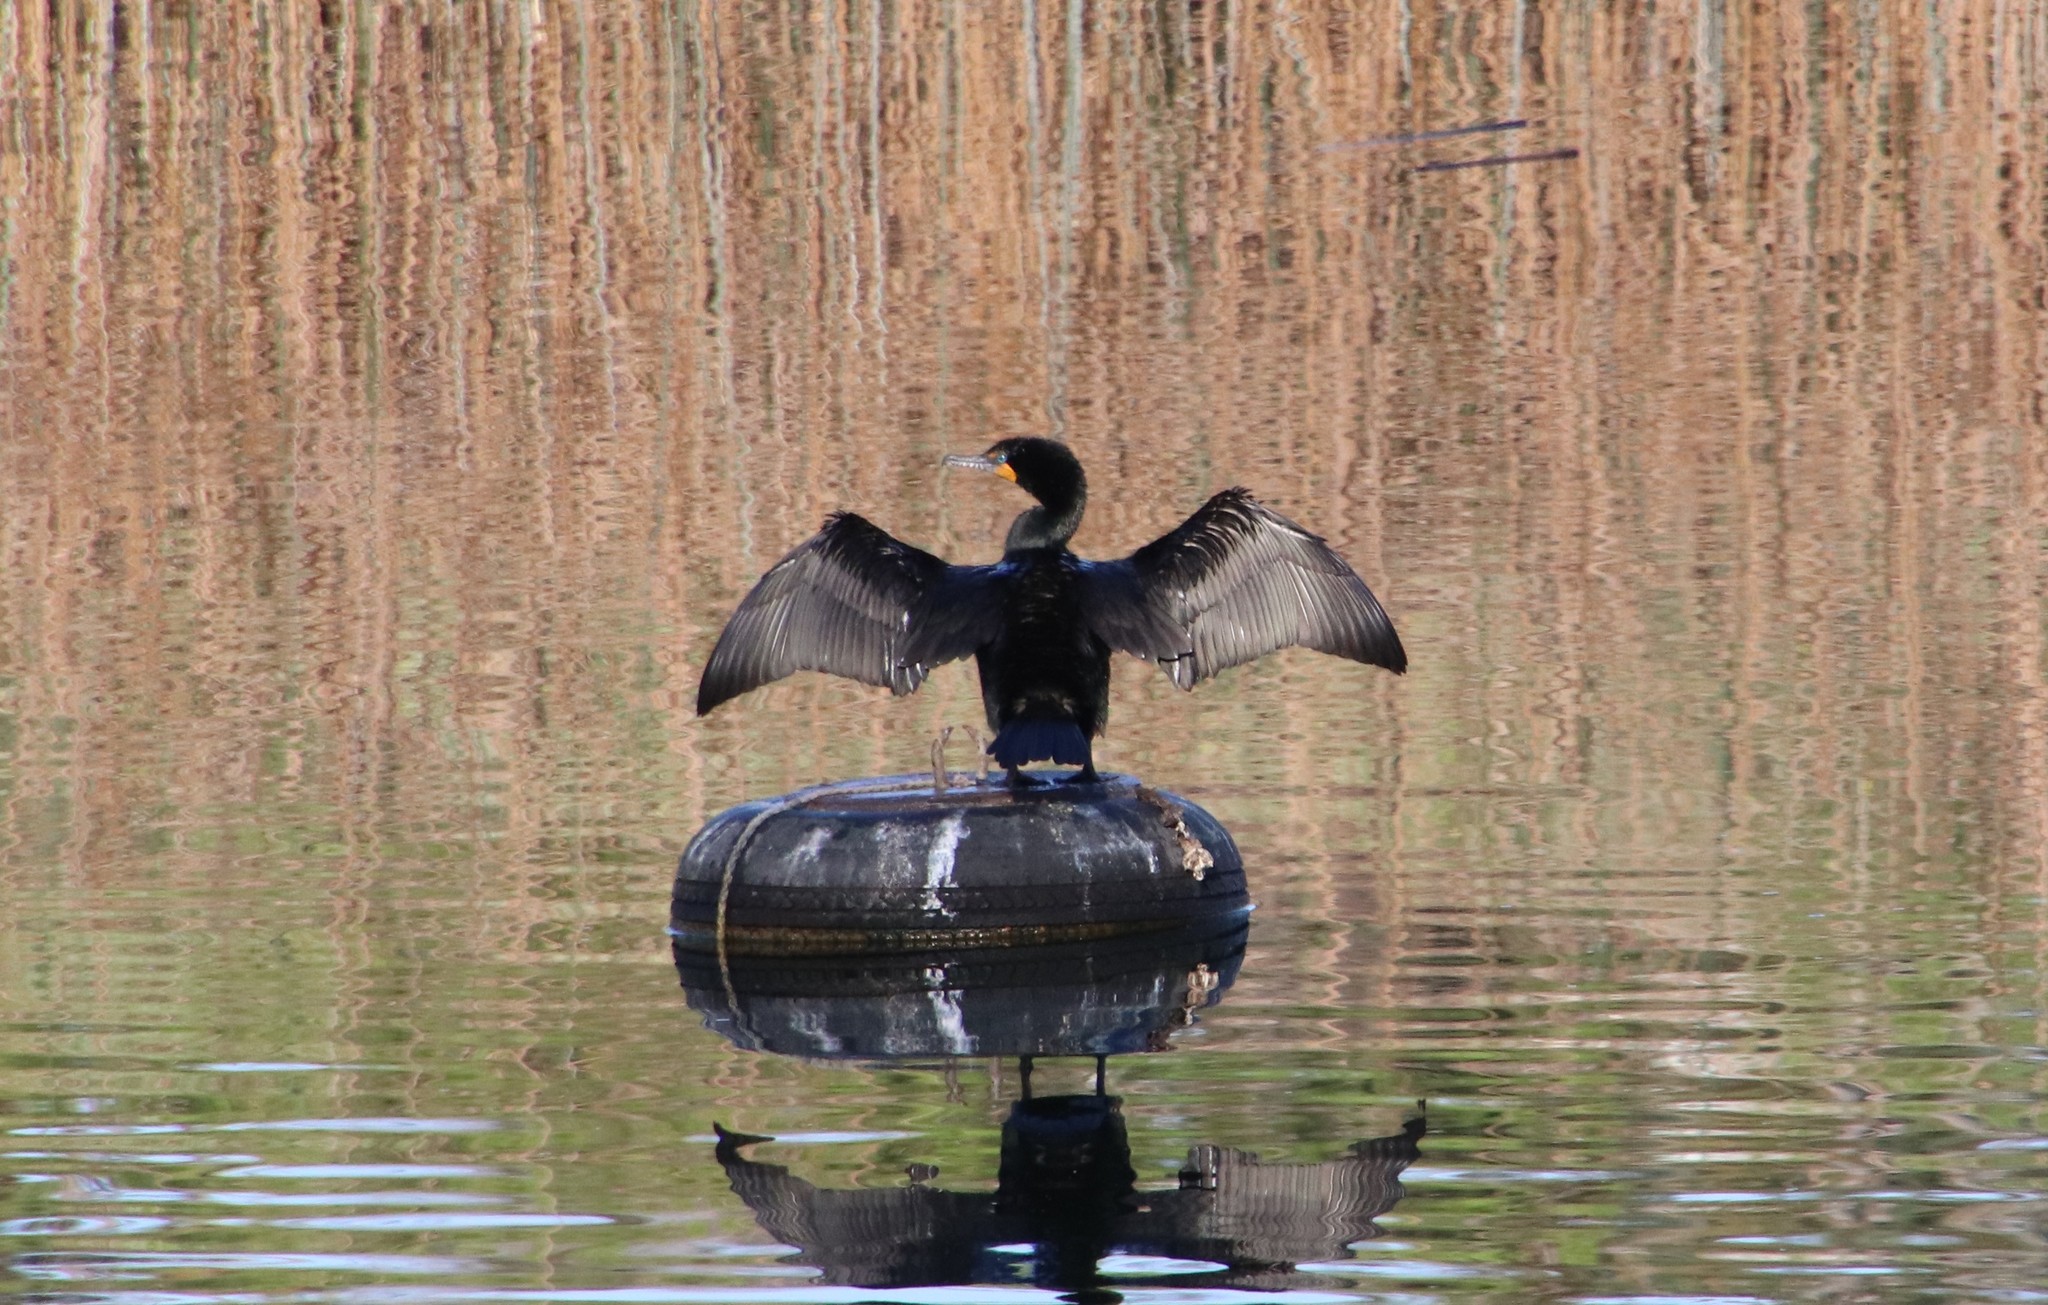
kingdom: Animalia
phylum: Chordata
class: Aves
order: Suliformes
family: Phalacrocoracidae
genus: Phalacrocorax
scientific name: Phalacrocorax auritus
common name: Double-crested cormorant
